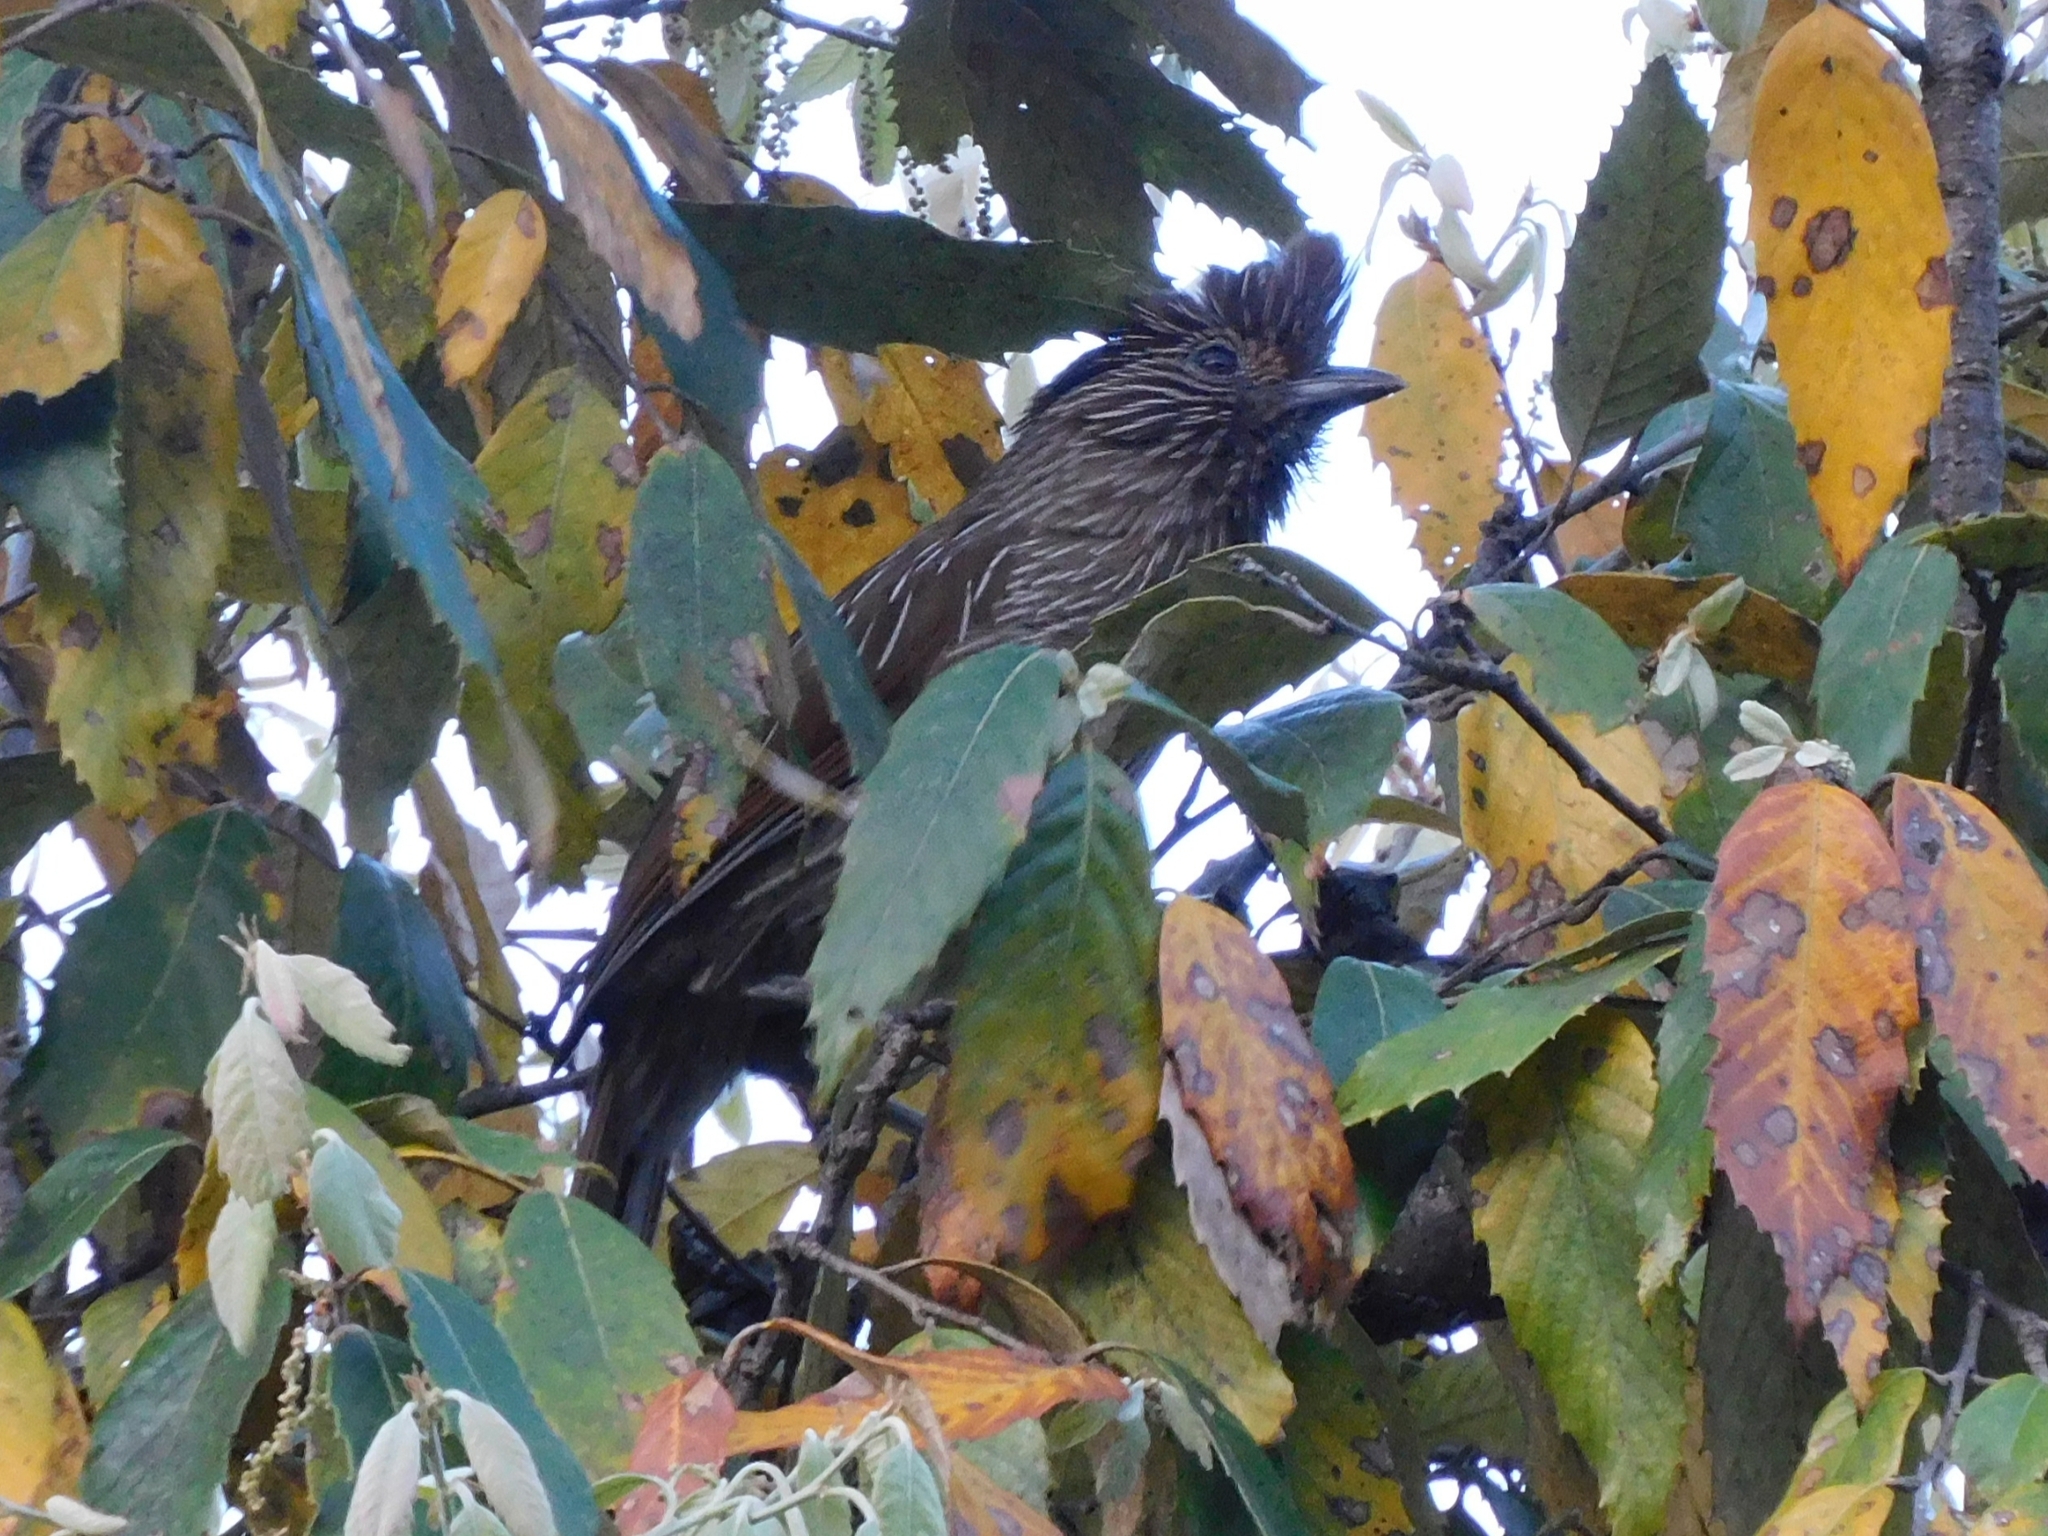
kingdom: Animalia
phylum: Chordata
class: Aves
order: Passeriformes
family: Leiothrichidae
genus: Garrulax
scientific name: Garrulax striatus
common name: Striated laughingthrush
